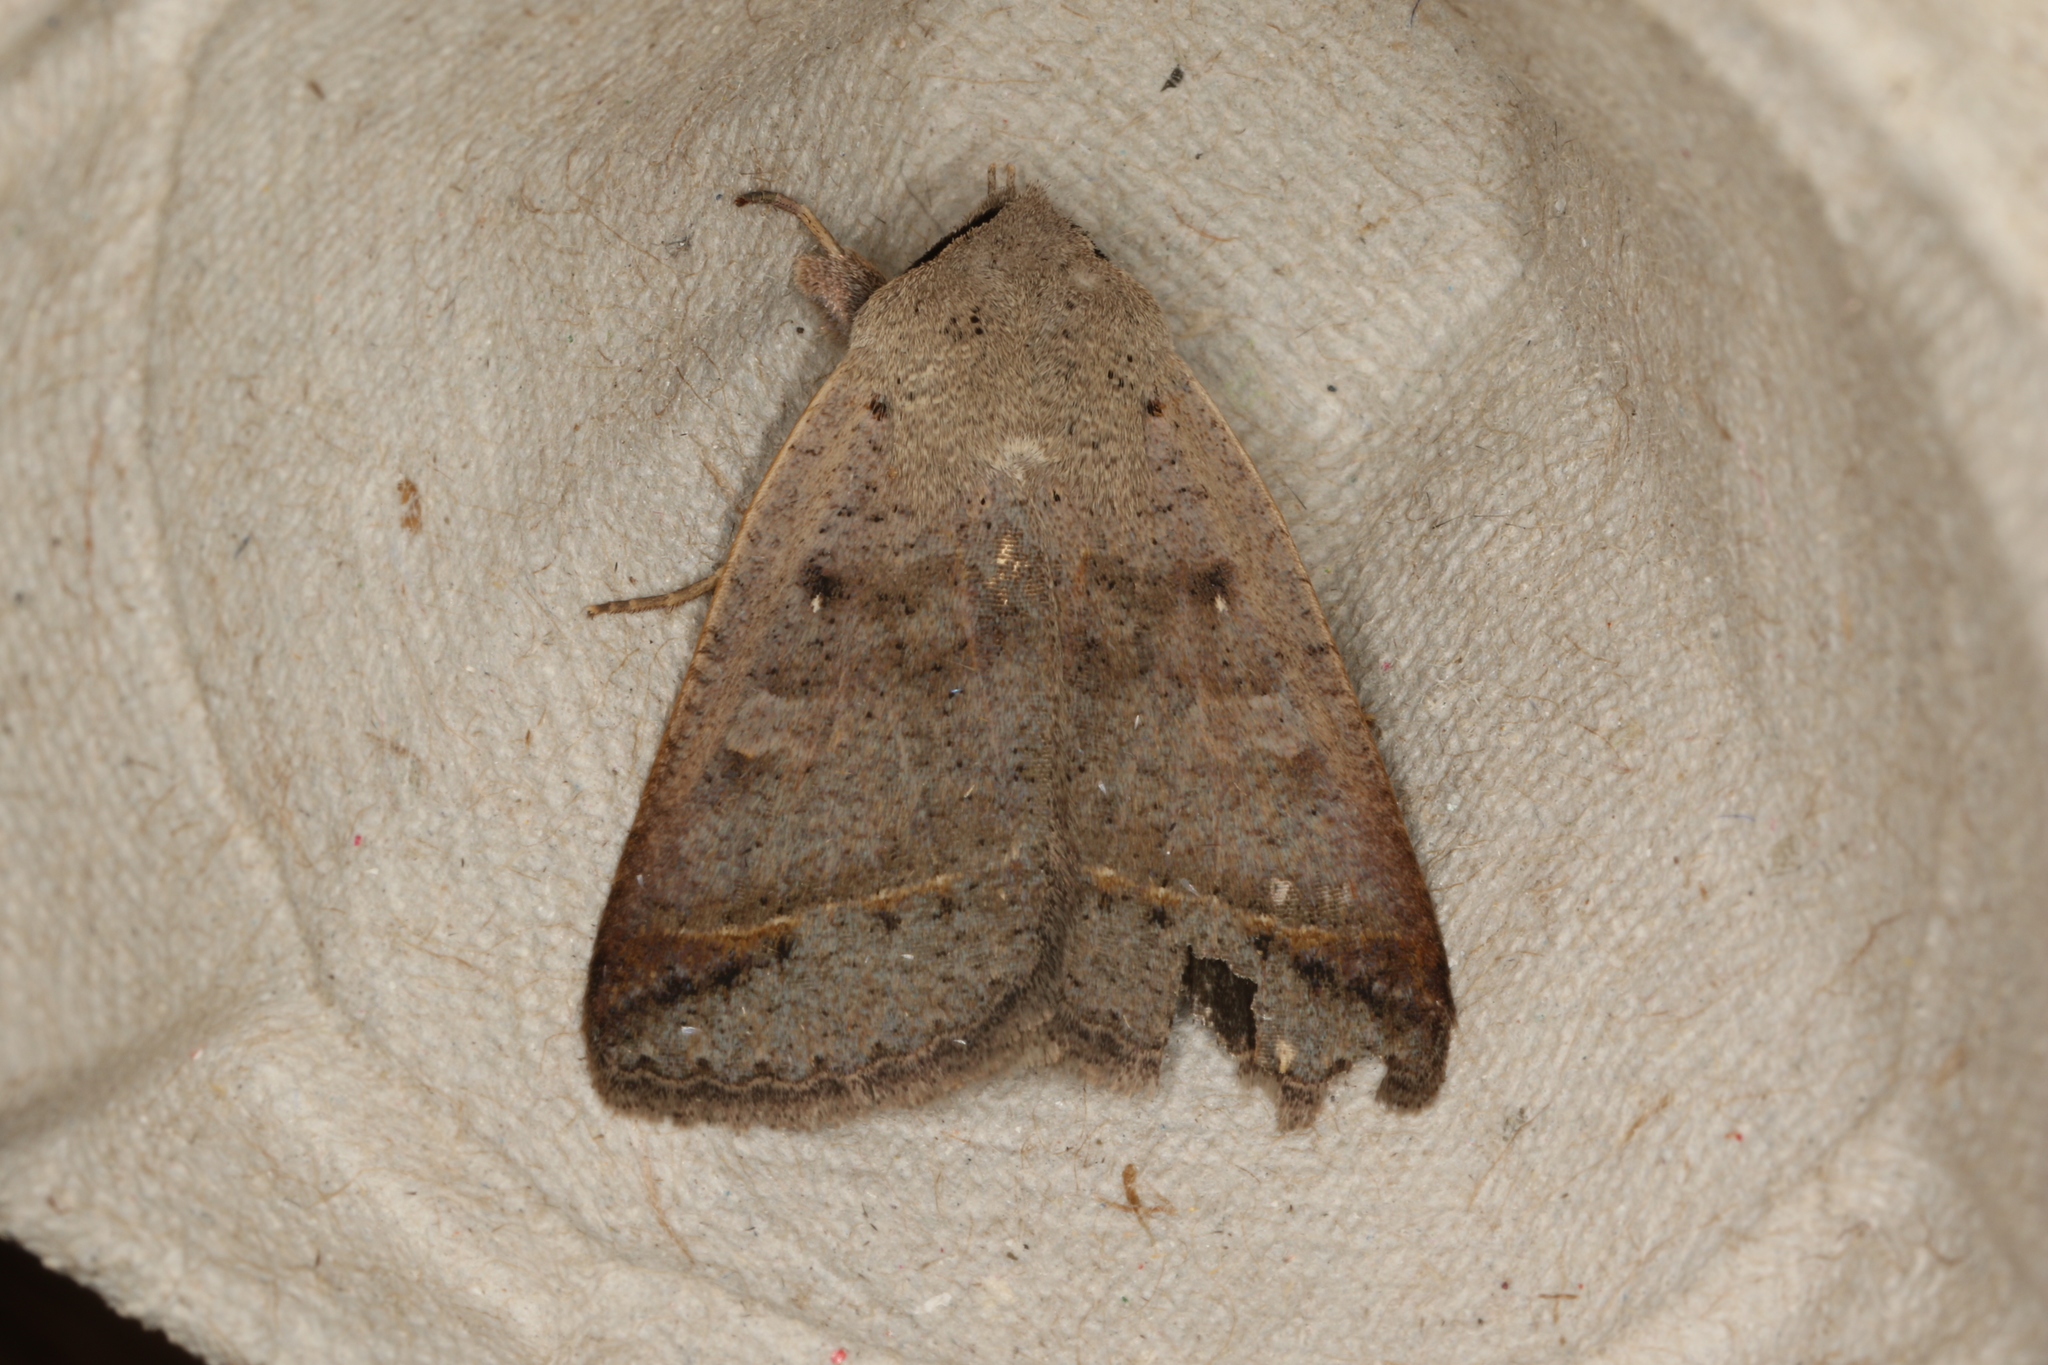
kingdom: Animalia
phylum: Arthropoda
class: Insecta
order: Lepidoptera
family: Erebidae
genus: Pantydia
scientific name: Pantydia sparsa
